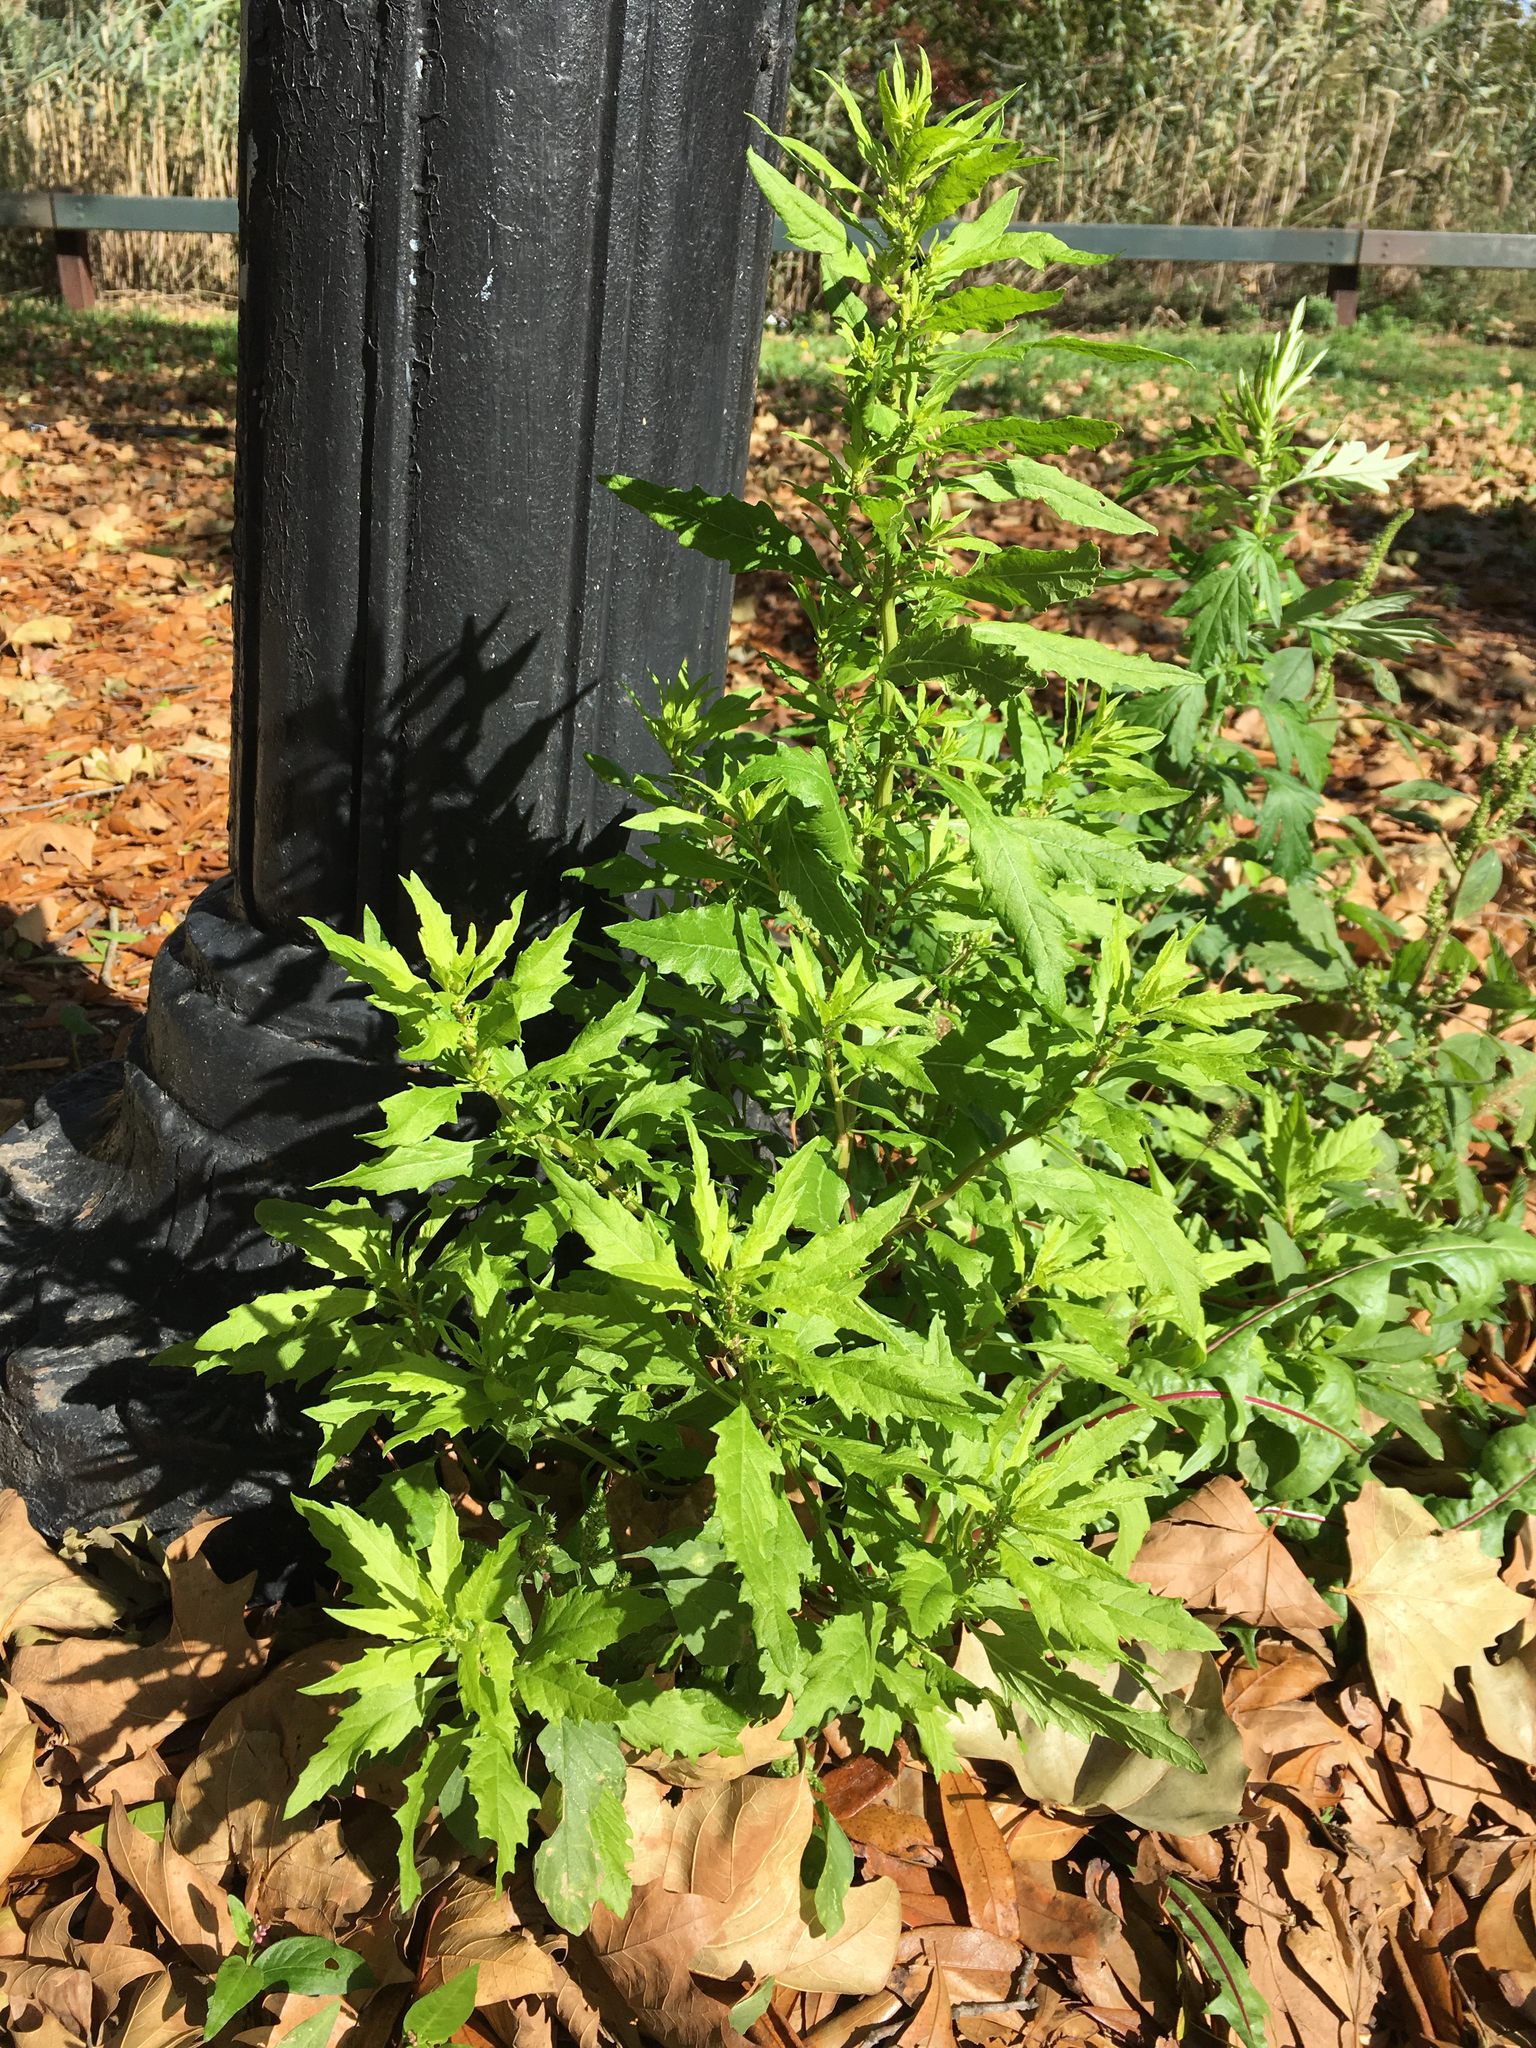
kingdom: Plantae
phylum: Tracheophyta
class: Magnoliopsida
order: Caryophyllales
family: Amaranthaceae
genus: Dysphania
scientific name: Dysphania ambrosioides
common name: Wormseed
